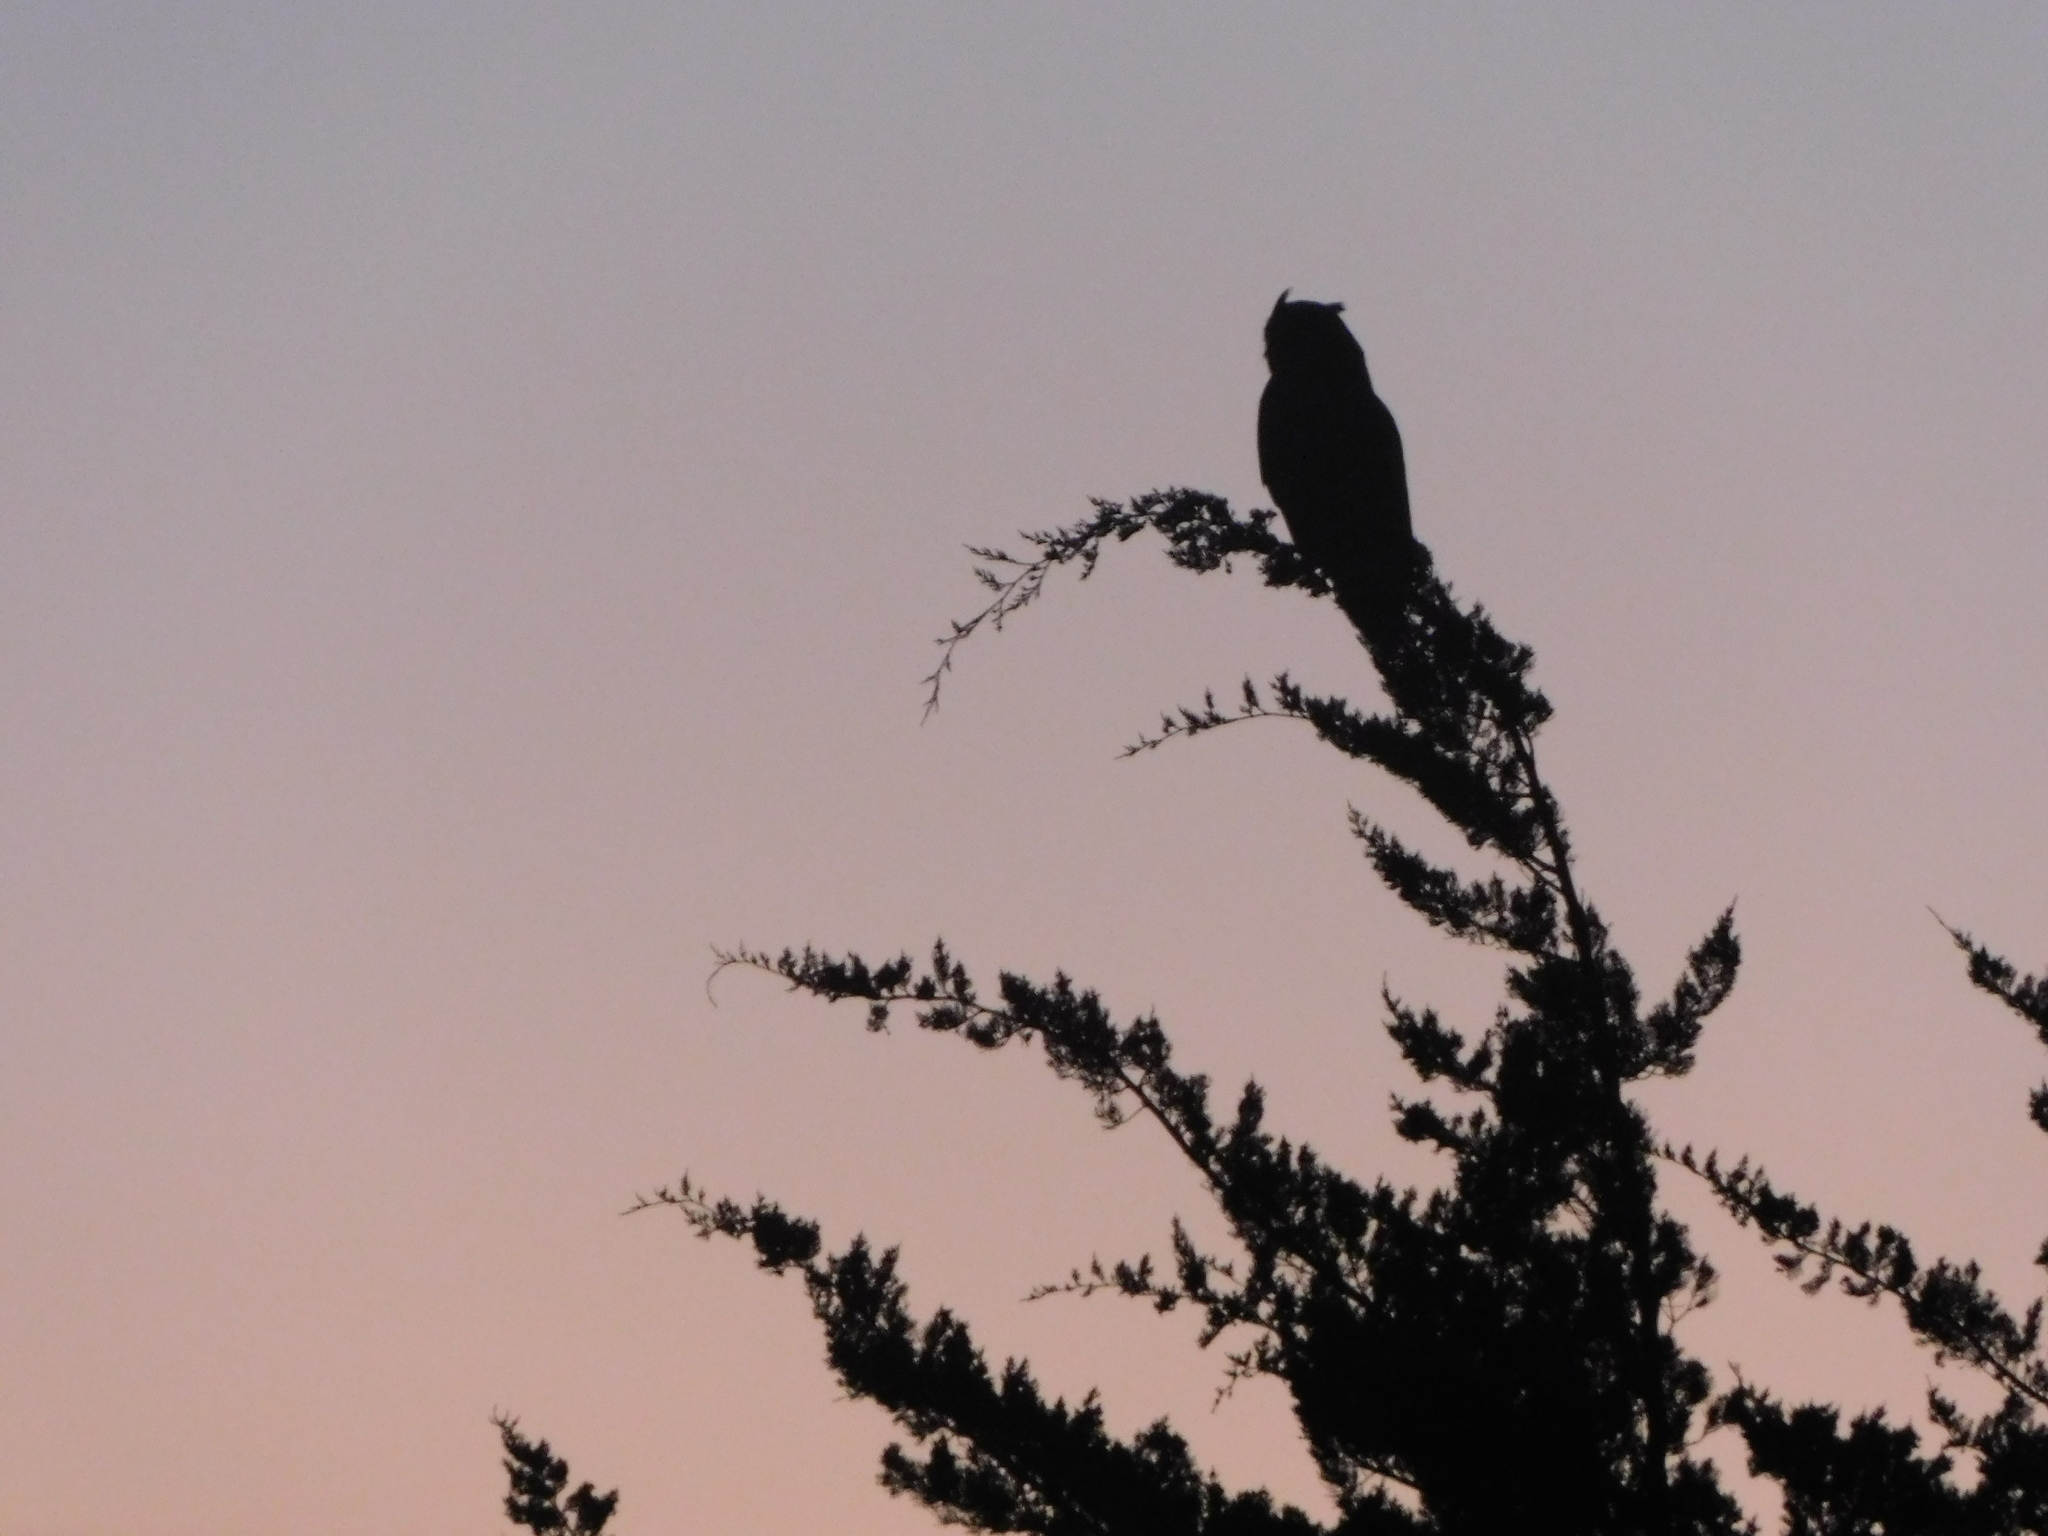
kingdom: Animalia
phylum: Chordata
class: Aves
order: Strigiformes
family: Strigidae
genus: Bubo
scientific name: Bubo virginianus
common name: Great horned owl
